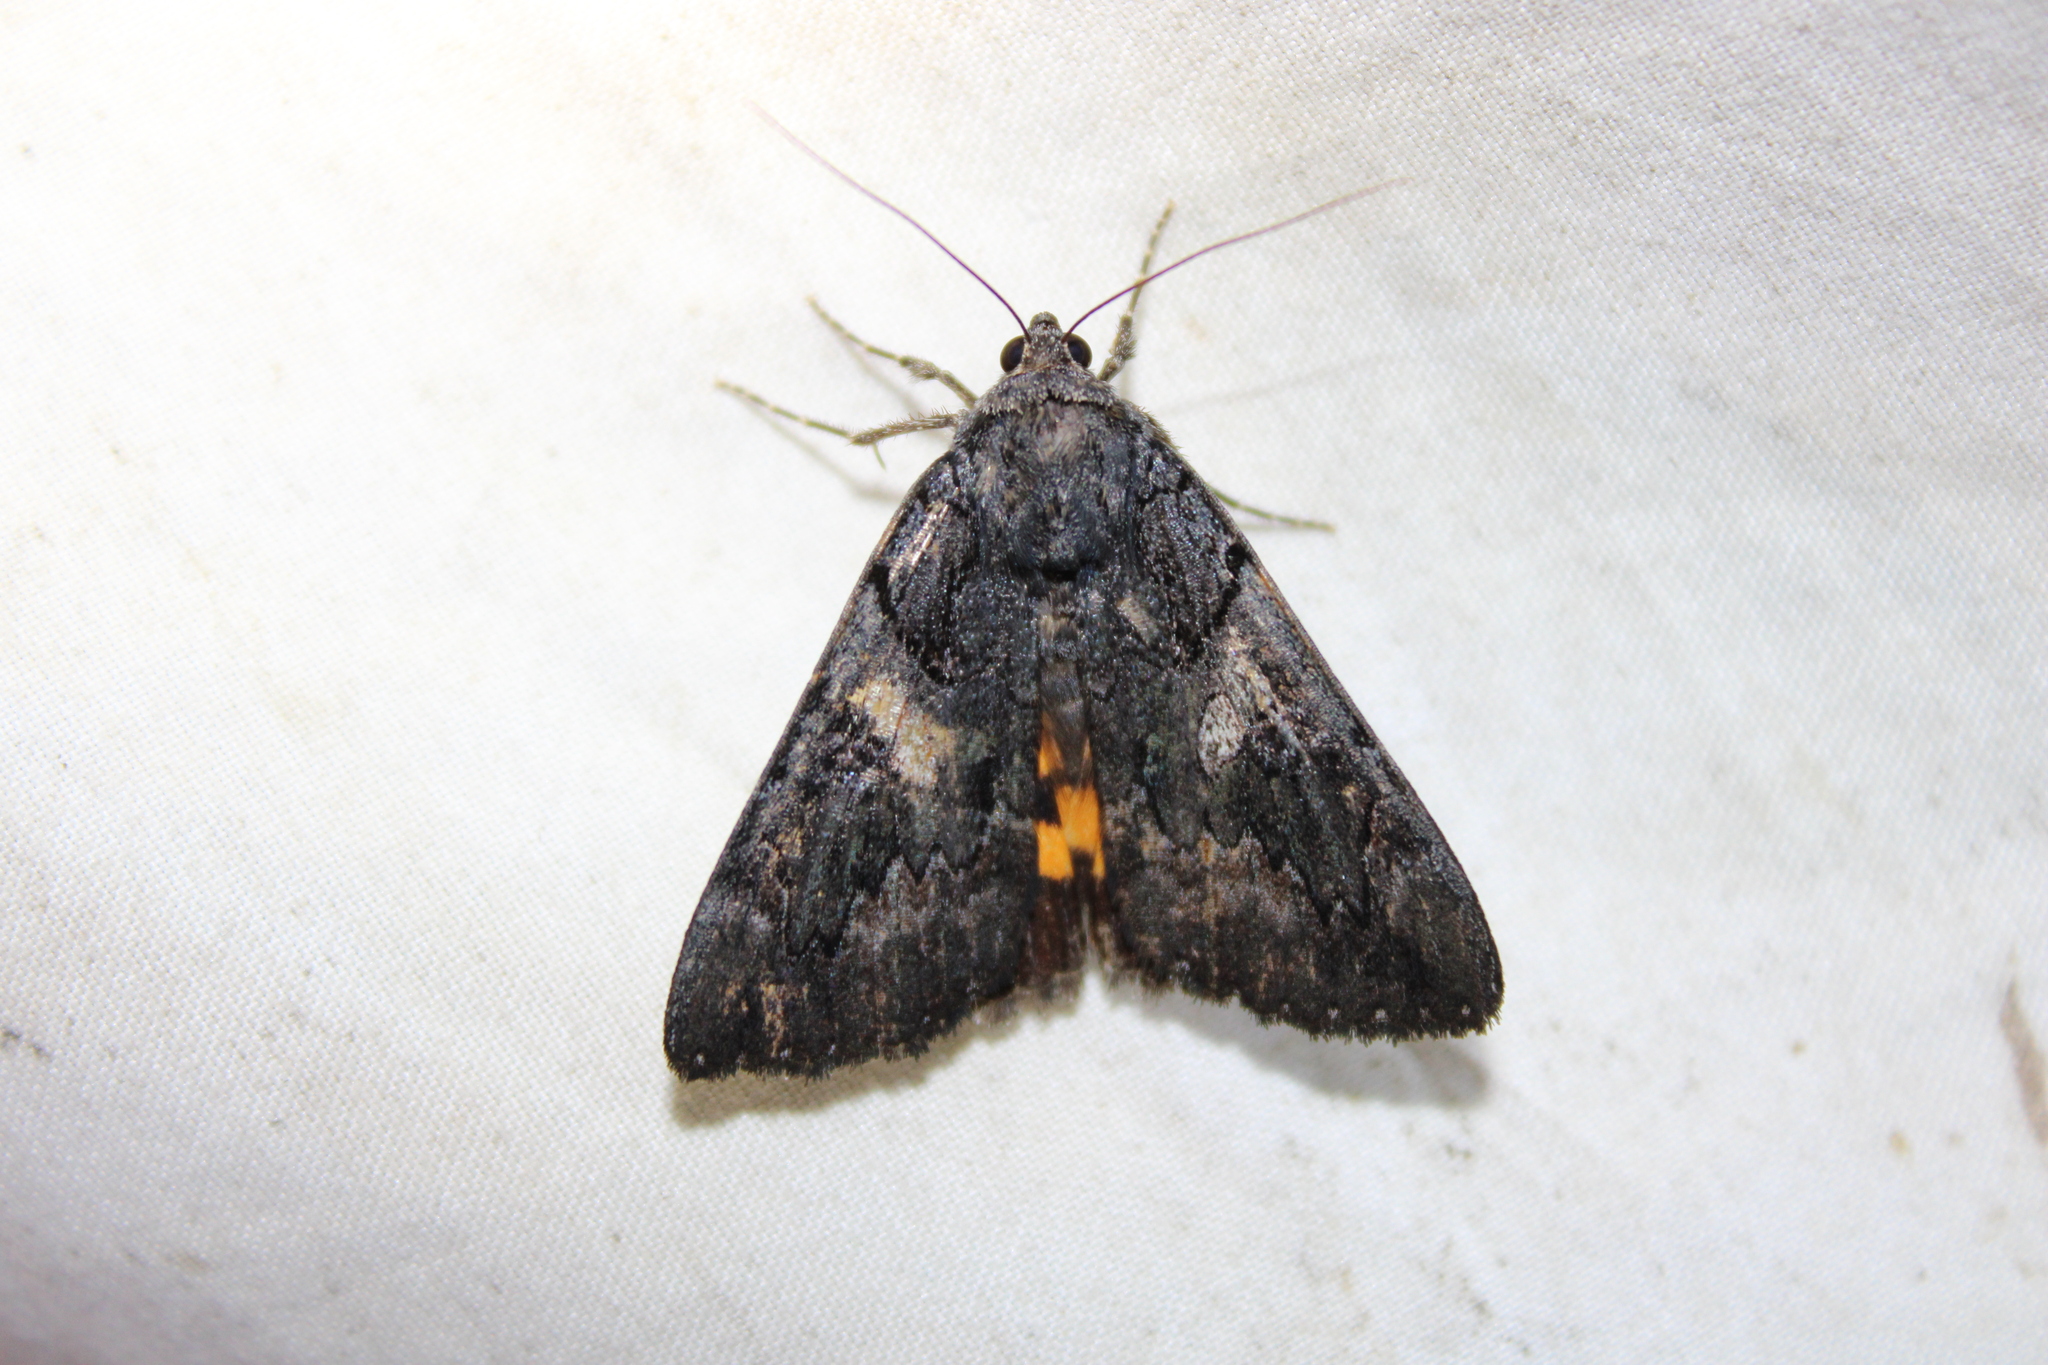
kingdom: Animalia
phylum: Arthropoda
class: Insecta
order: Lepidoptera
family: Erebidae
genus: Catocala
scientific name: Catocala antinympha
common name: Sweetfern underwing
